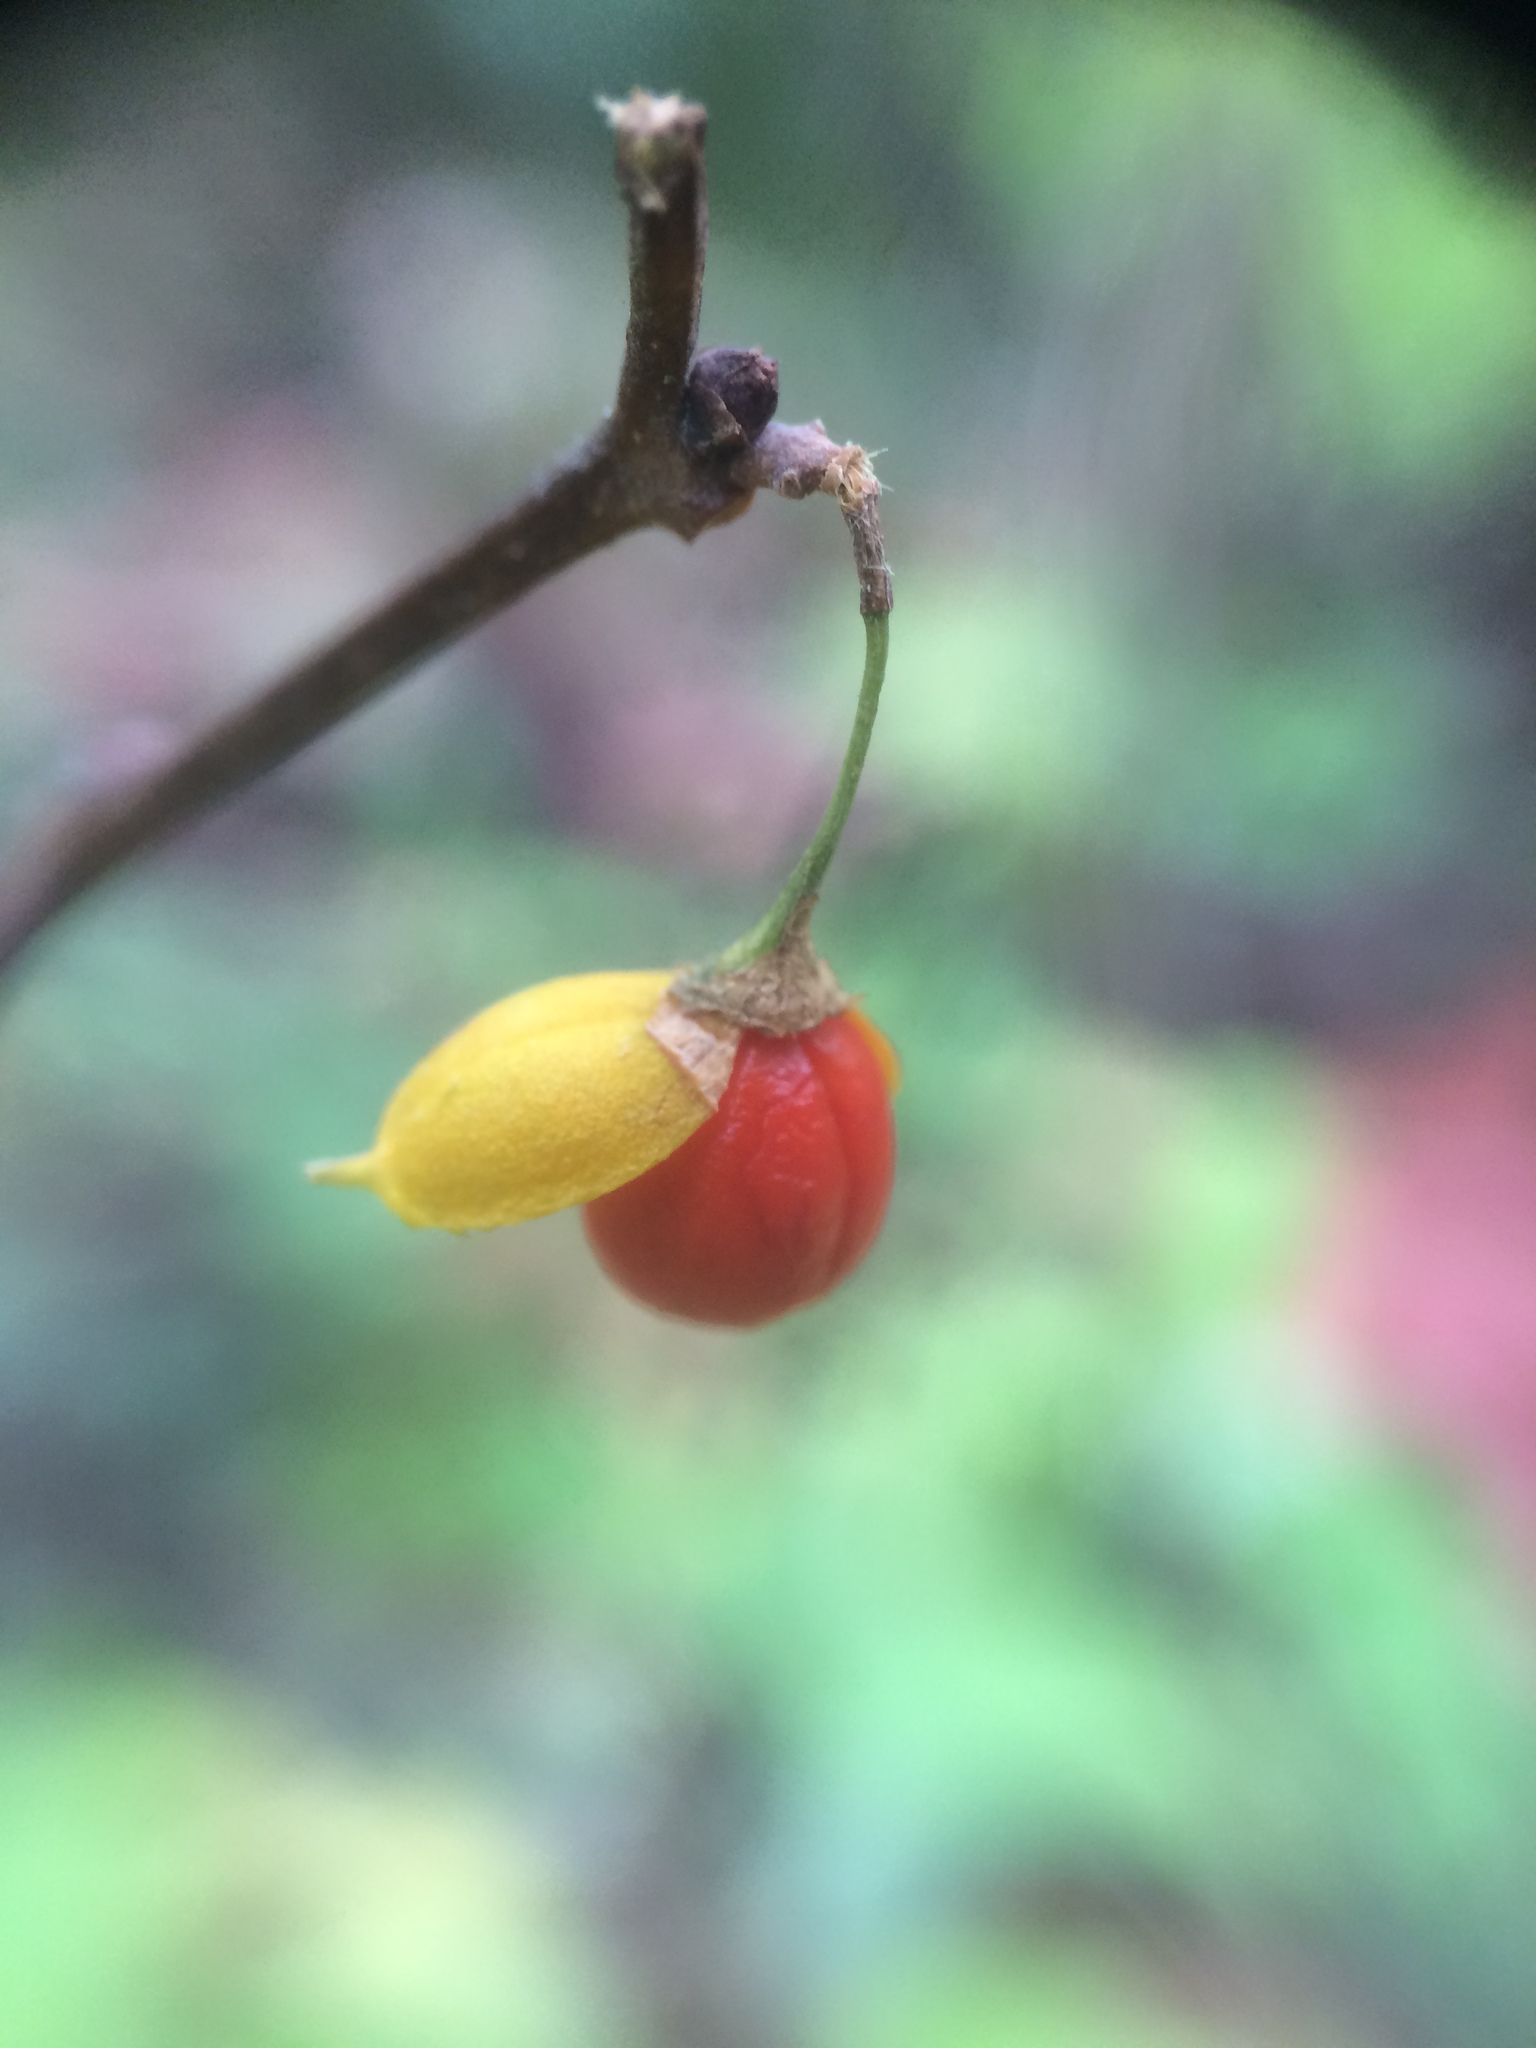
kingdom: Plantae
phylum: Tracheophyta
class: Magnoliopsida
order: Celastrales
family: Celastraceae
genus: Celastrus
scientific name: Celastrus orbiculatus
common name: Oriental bittersweet
